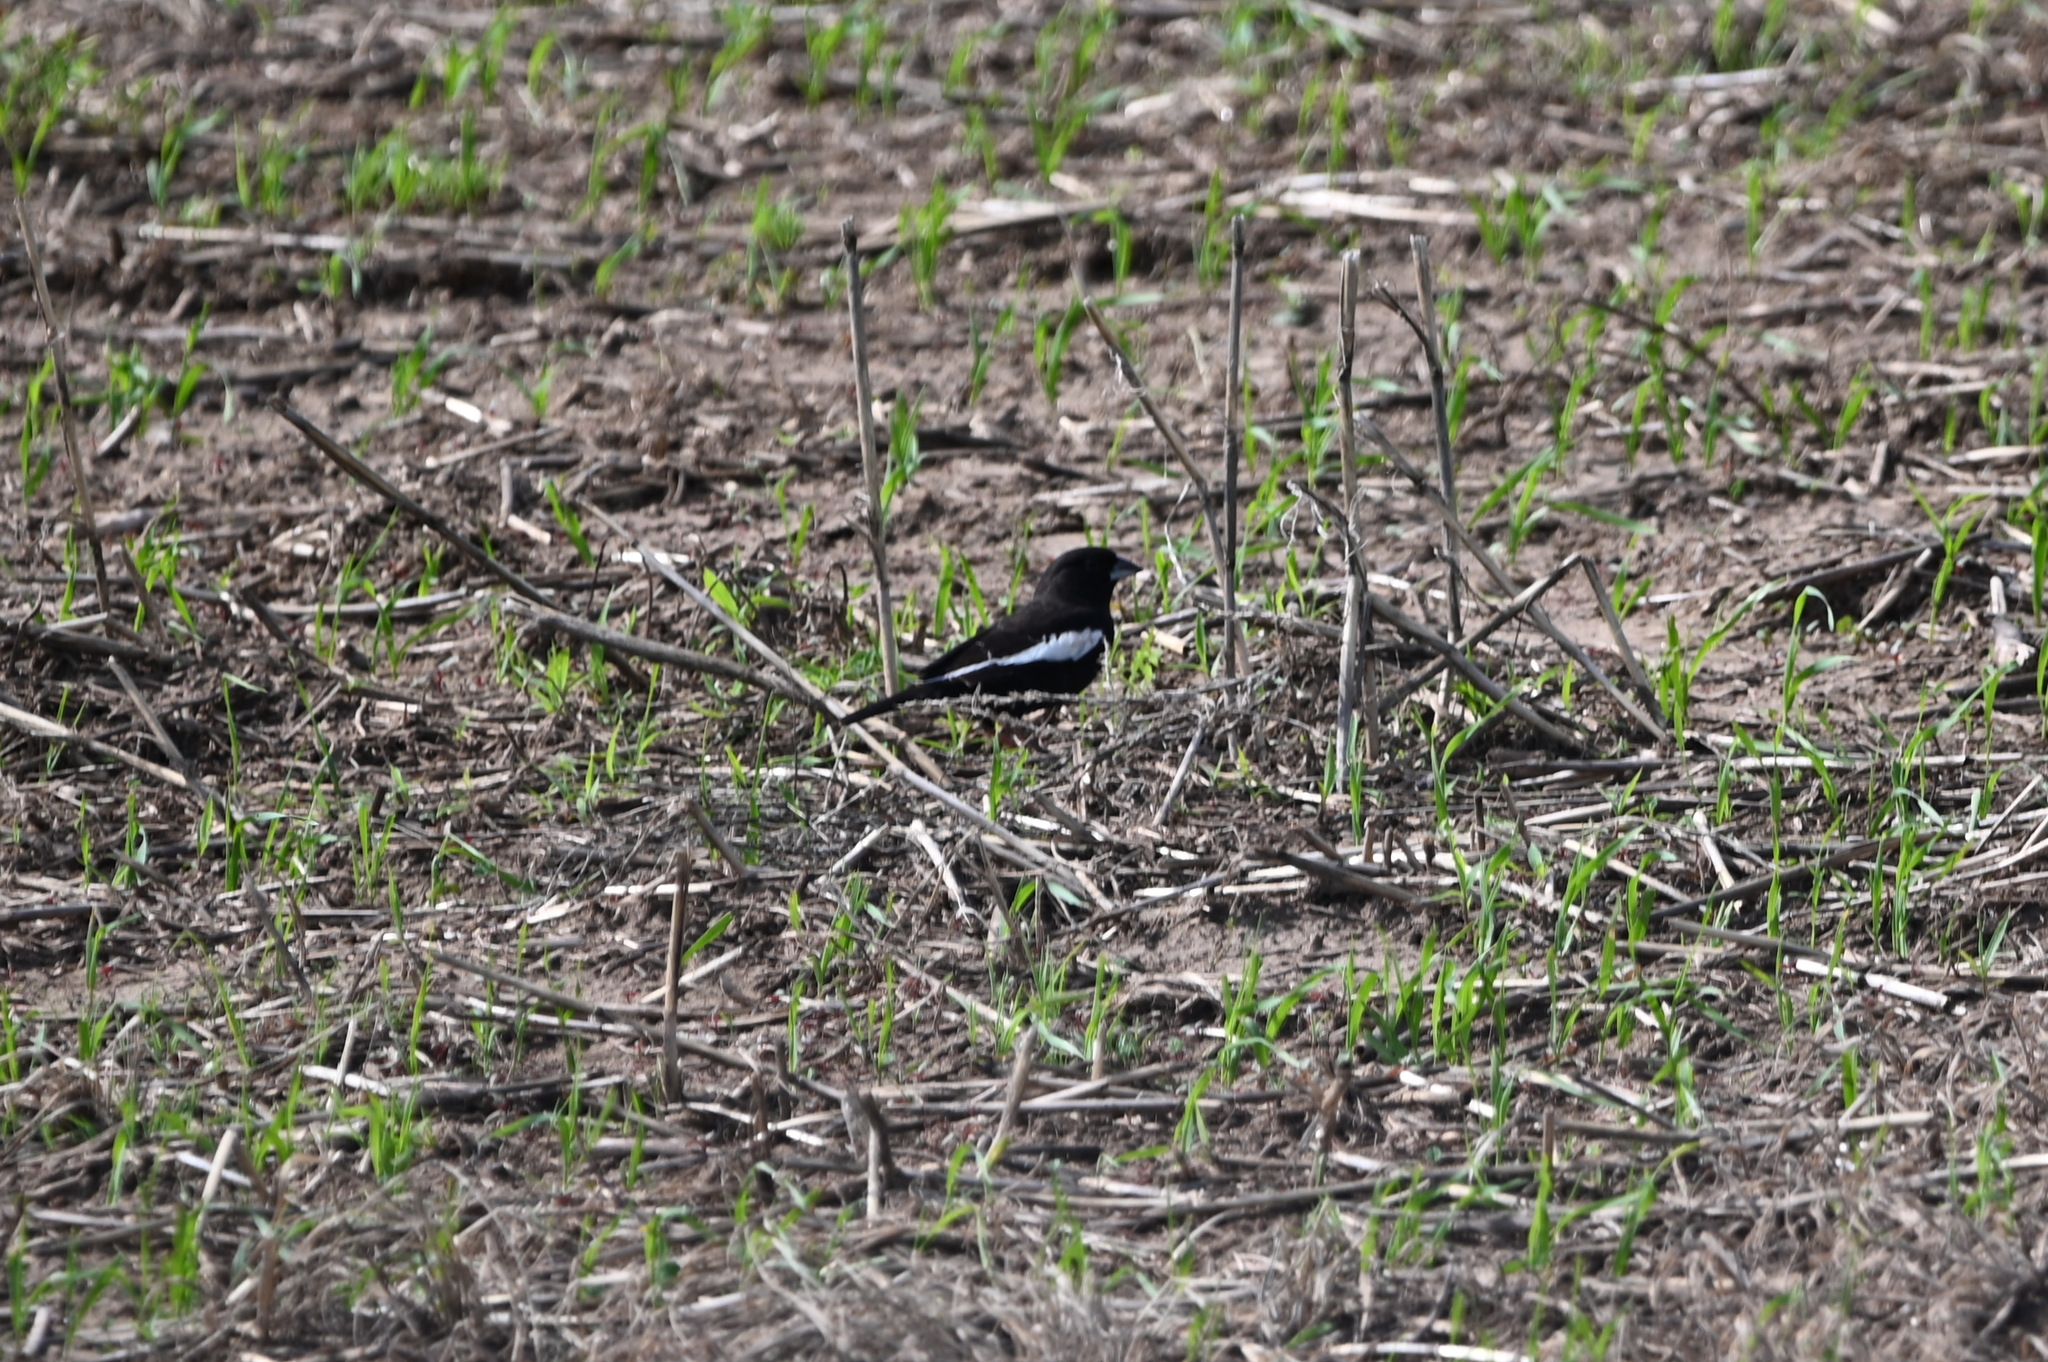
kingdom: Animalia
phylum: Chordata
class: Aves
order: Passeriformes
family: Passerellidae
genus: Calamospiza
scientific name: Calamospiza melanocorys
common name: Lark bunting
